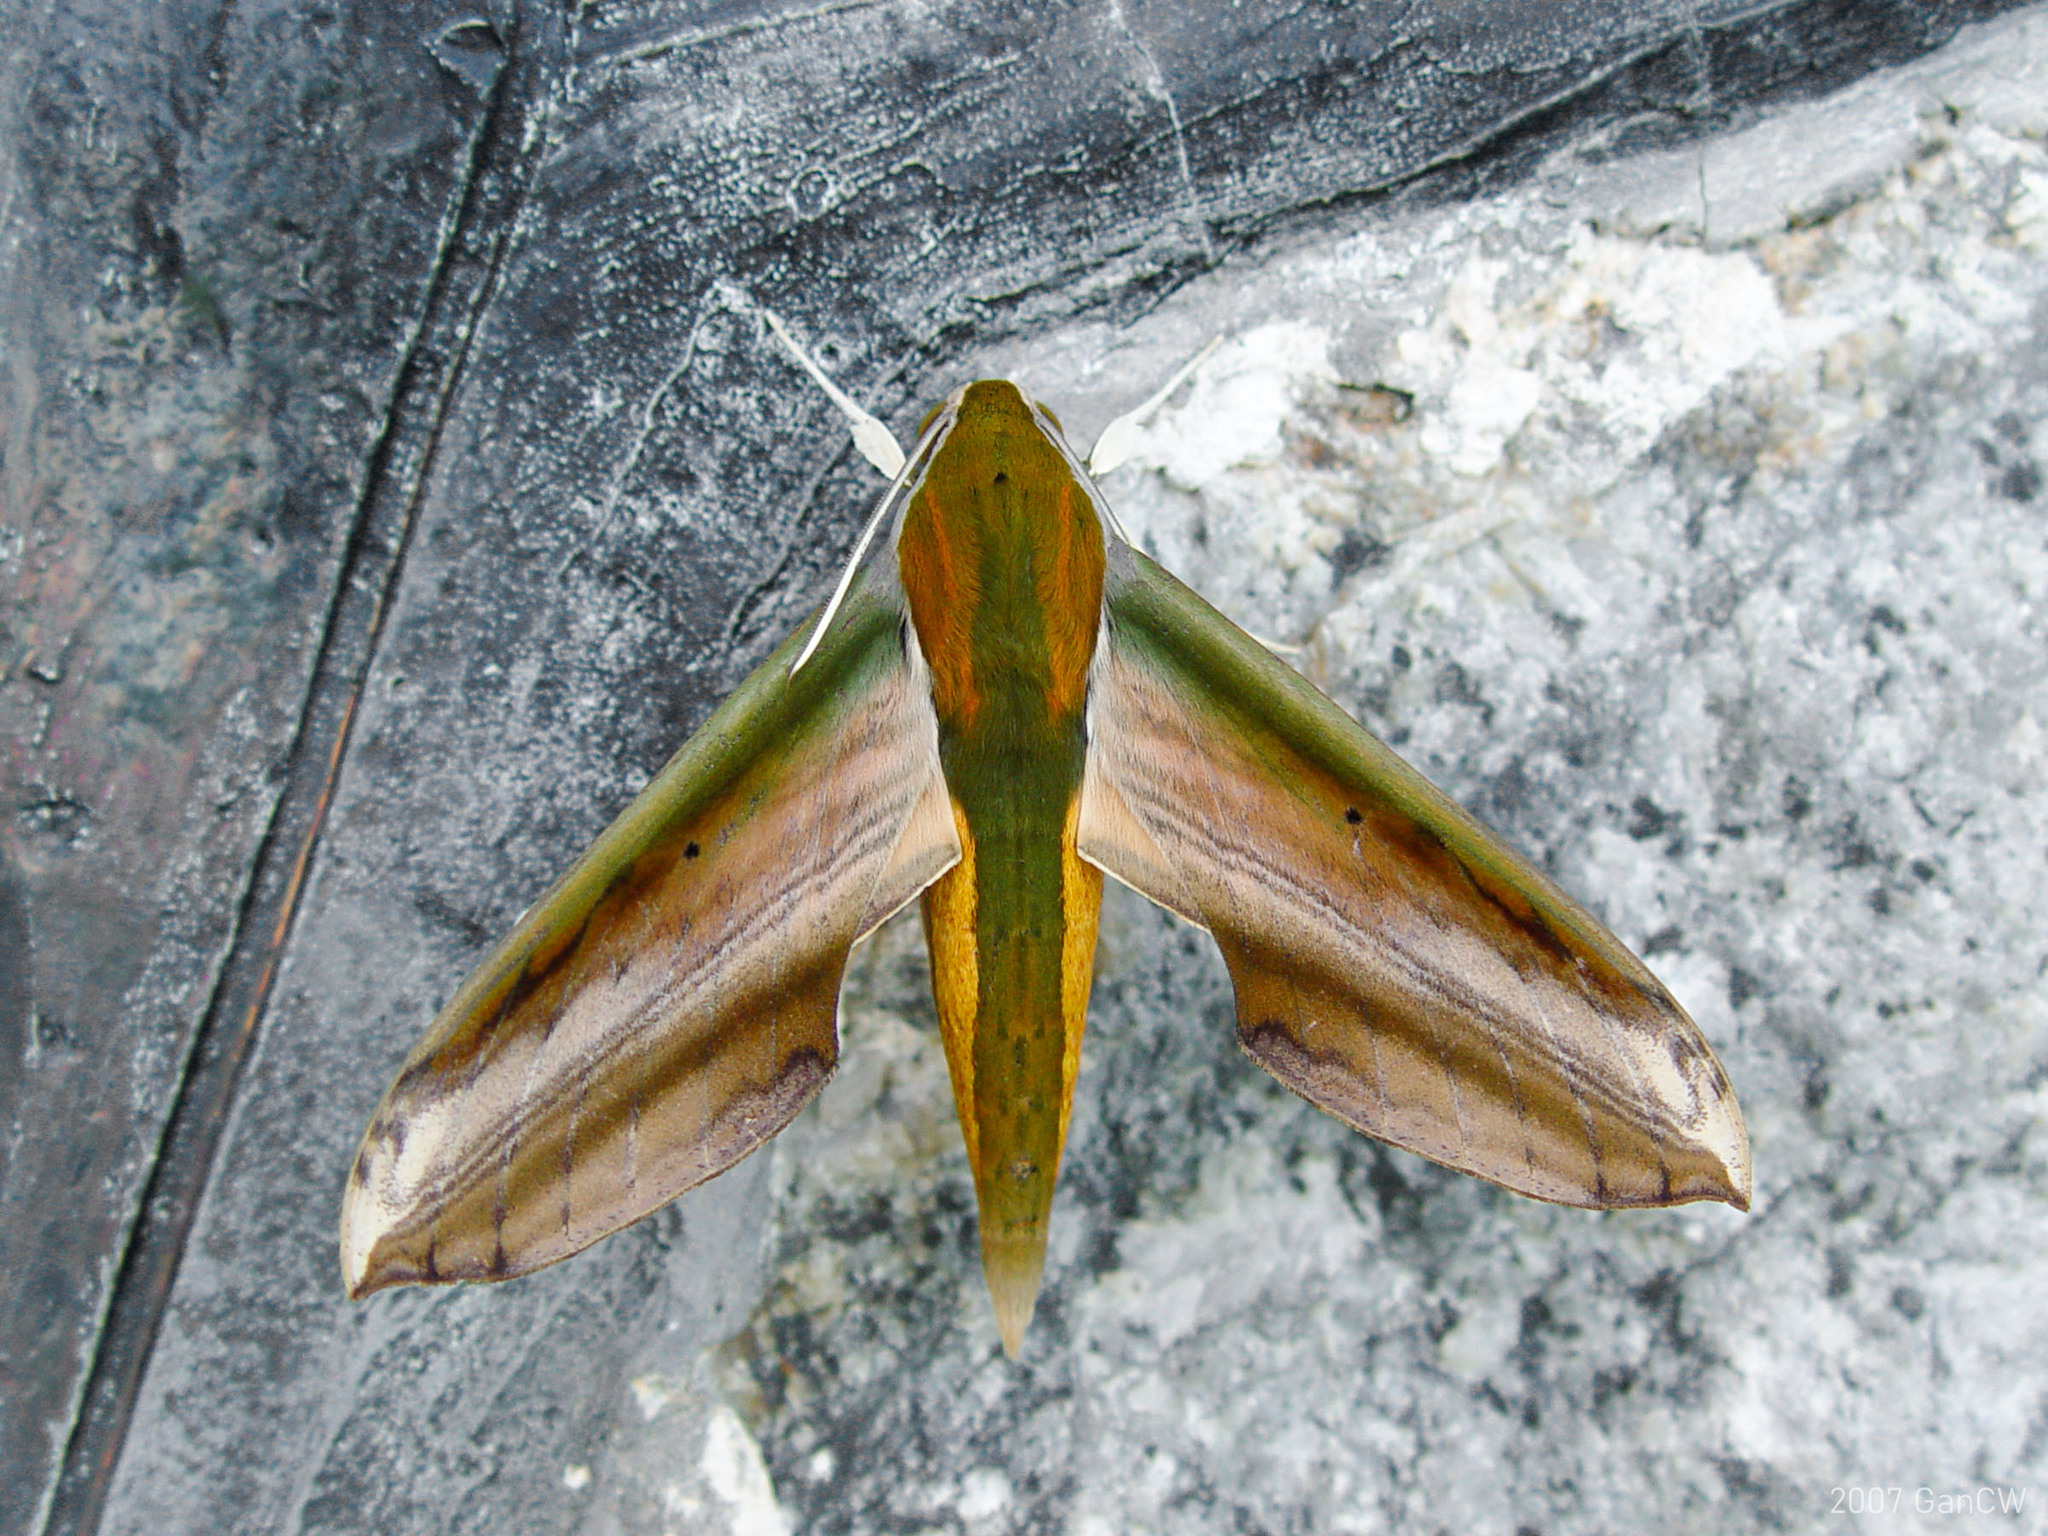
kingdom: Animalia
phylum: Arthropoda
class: Insecta
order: Lepidoptera
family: Sphingidae
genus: Theretra
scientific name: Theretra nessus
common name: Yam hawk moth
